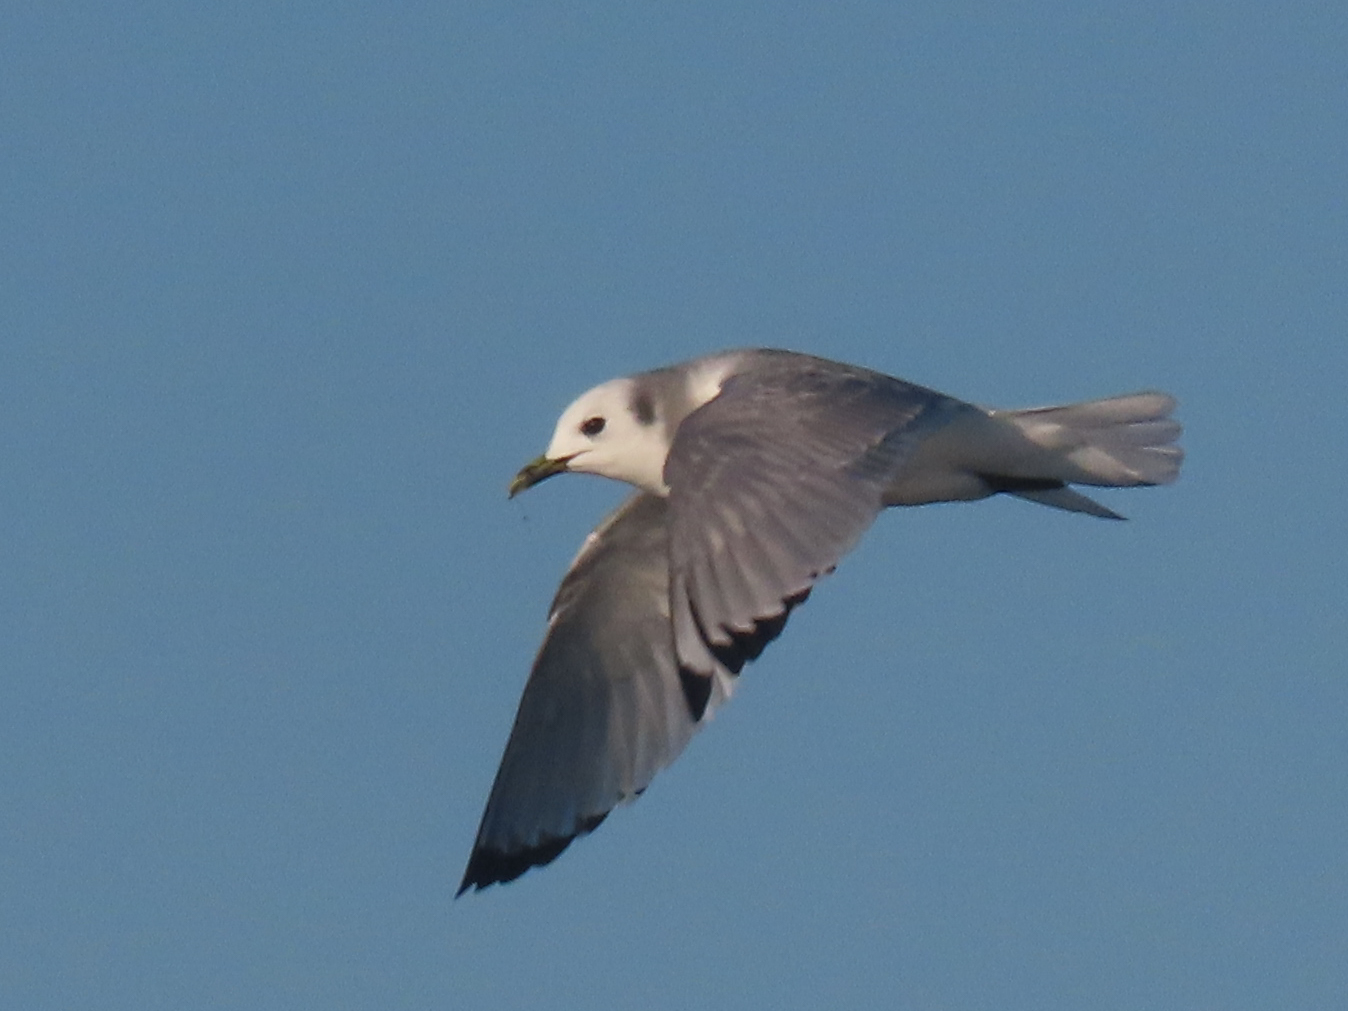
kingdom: Animalia
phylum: Chordata
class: Aves
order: Charadriiformes
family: Laridae
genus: Rissa
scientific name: Rissa tridactyla
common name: Black-legged kittiwake
